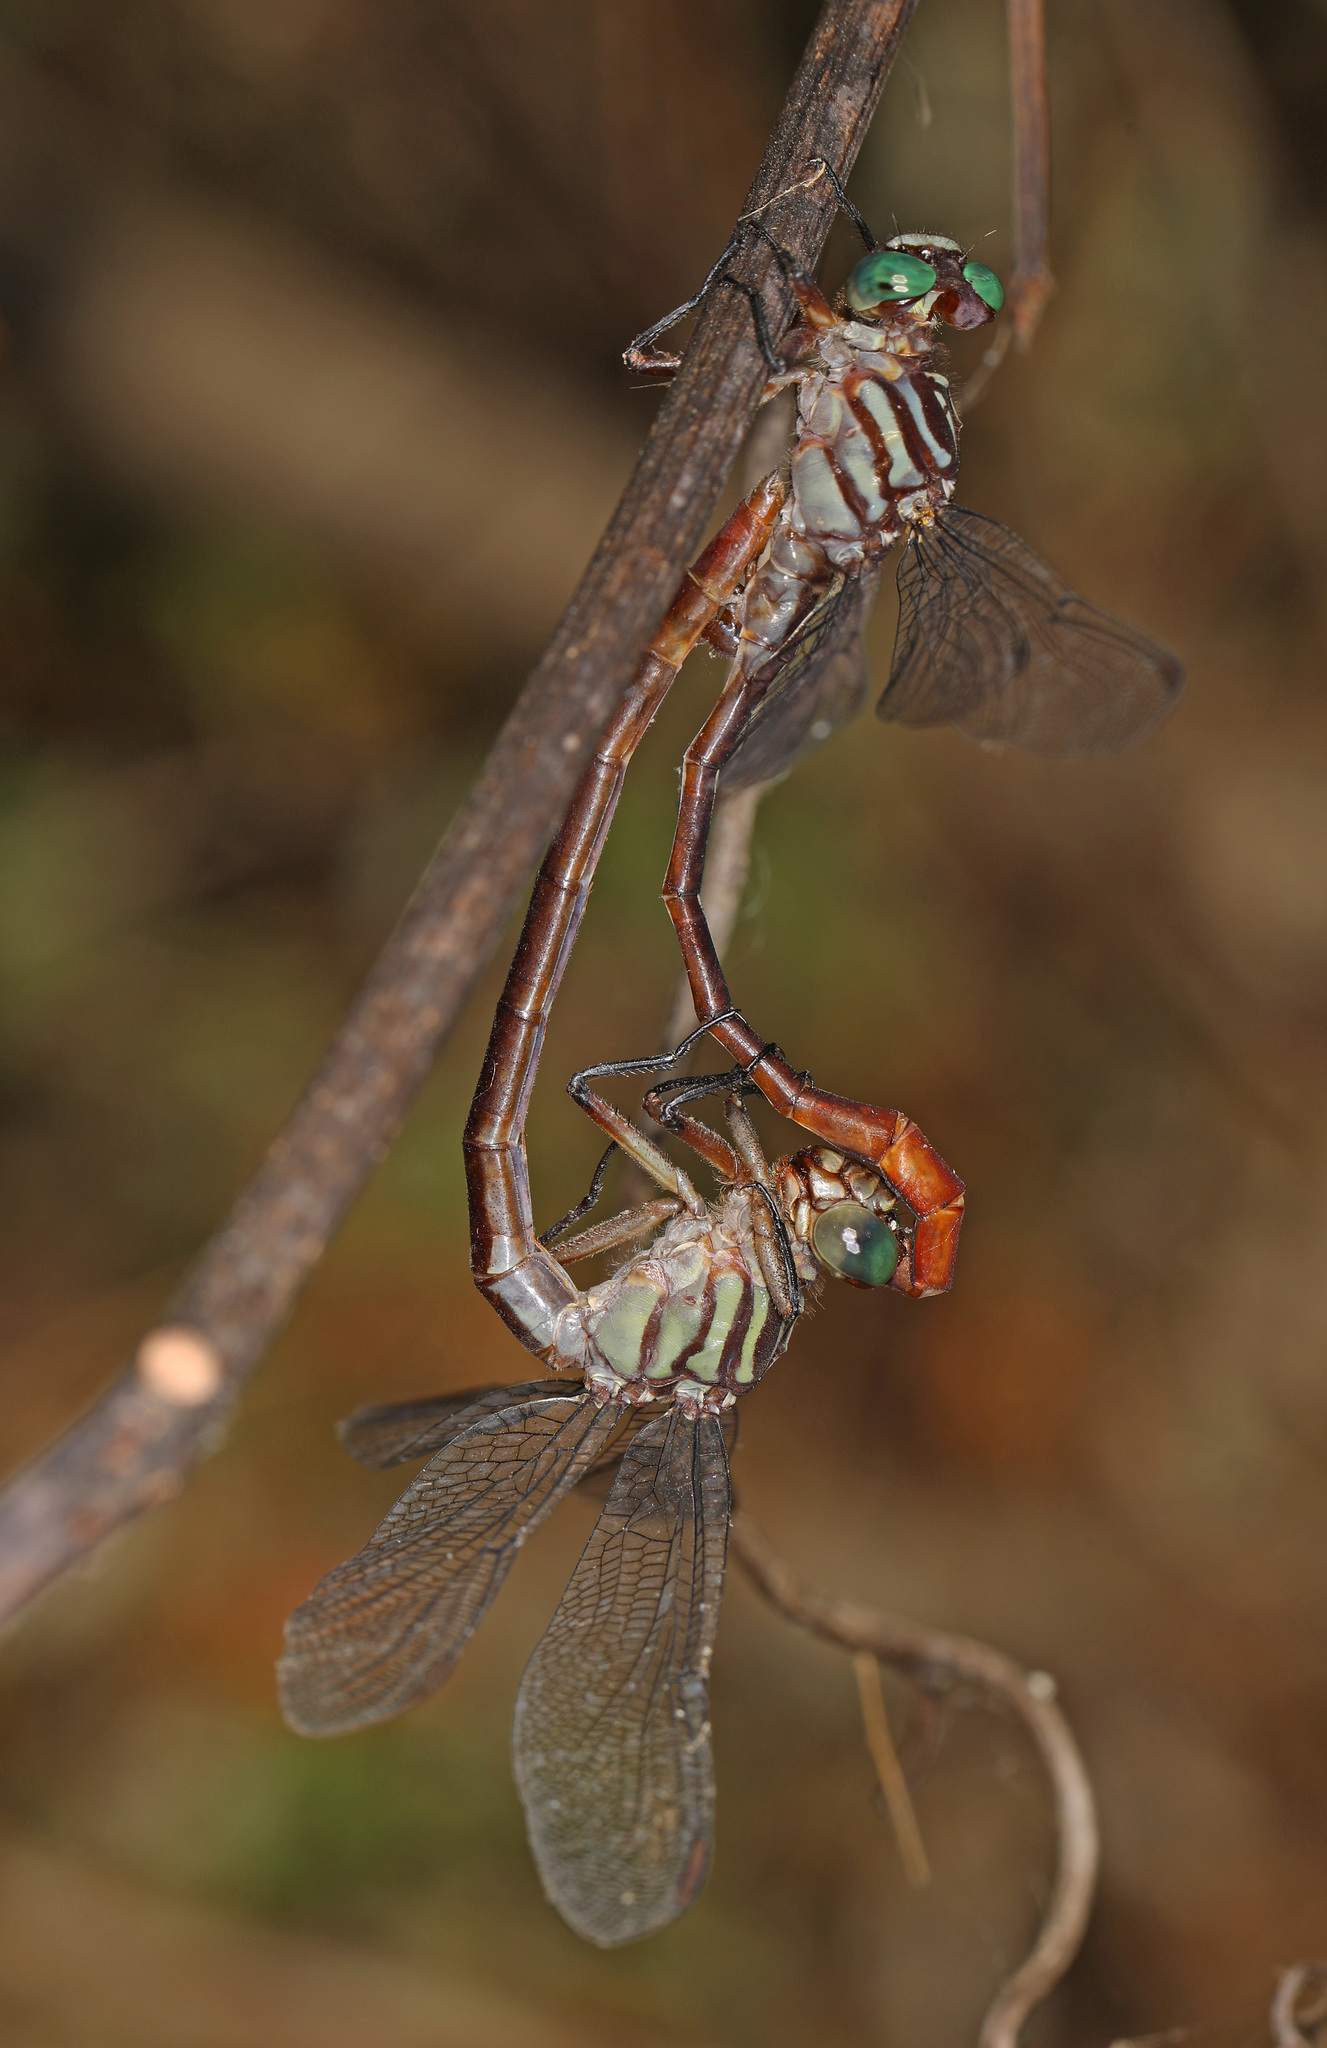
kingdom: Animalia
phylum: Arthropoda
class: Insecta
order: Odonata
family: Gomphidae
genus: Stylurus
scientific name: Stylurus plagiatus
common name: Russet-tipped clubtail
